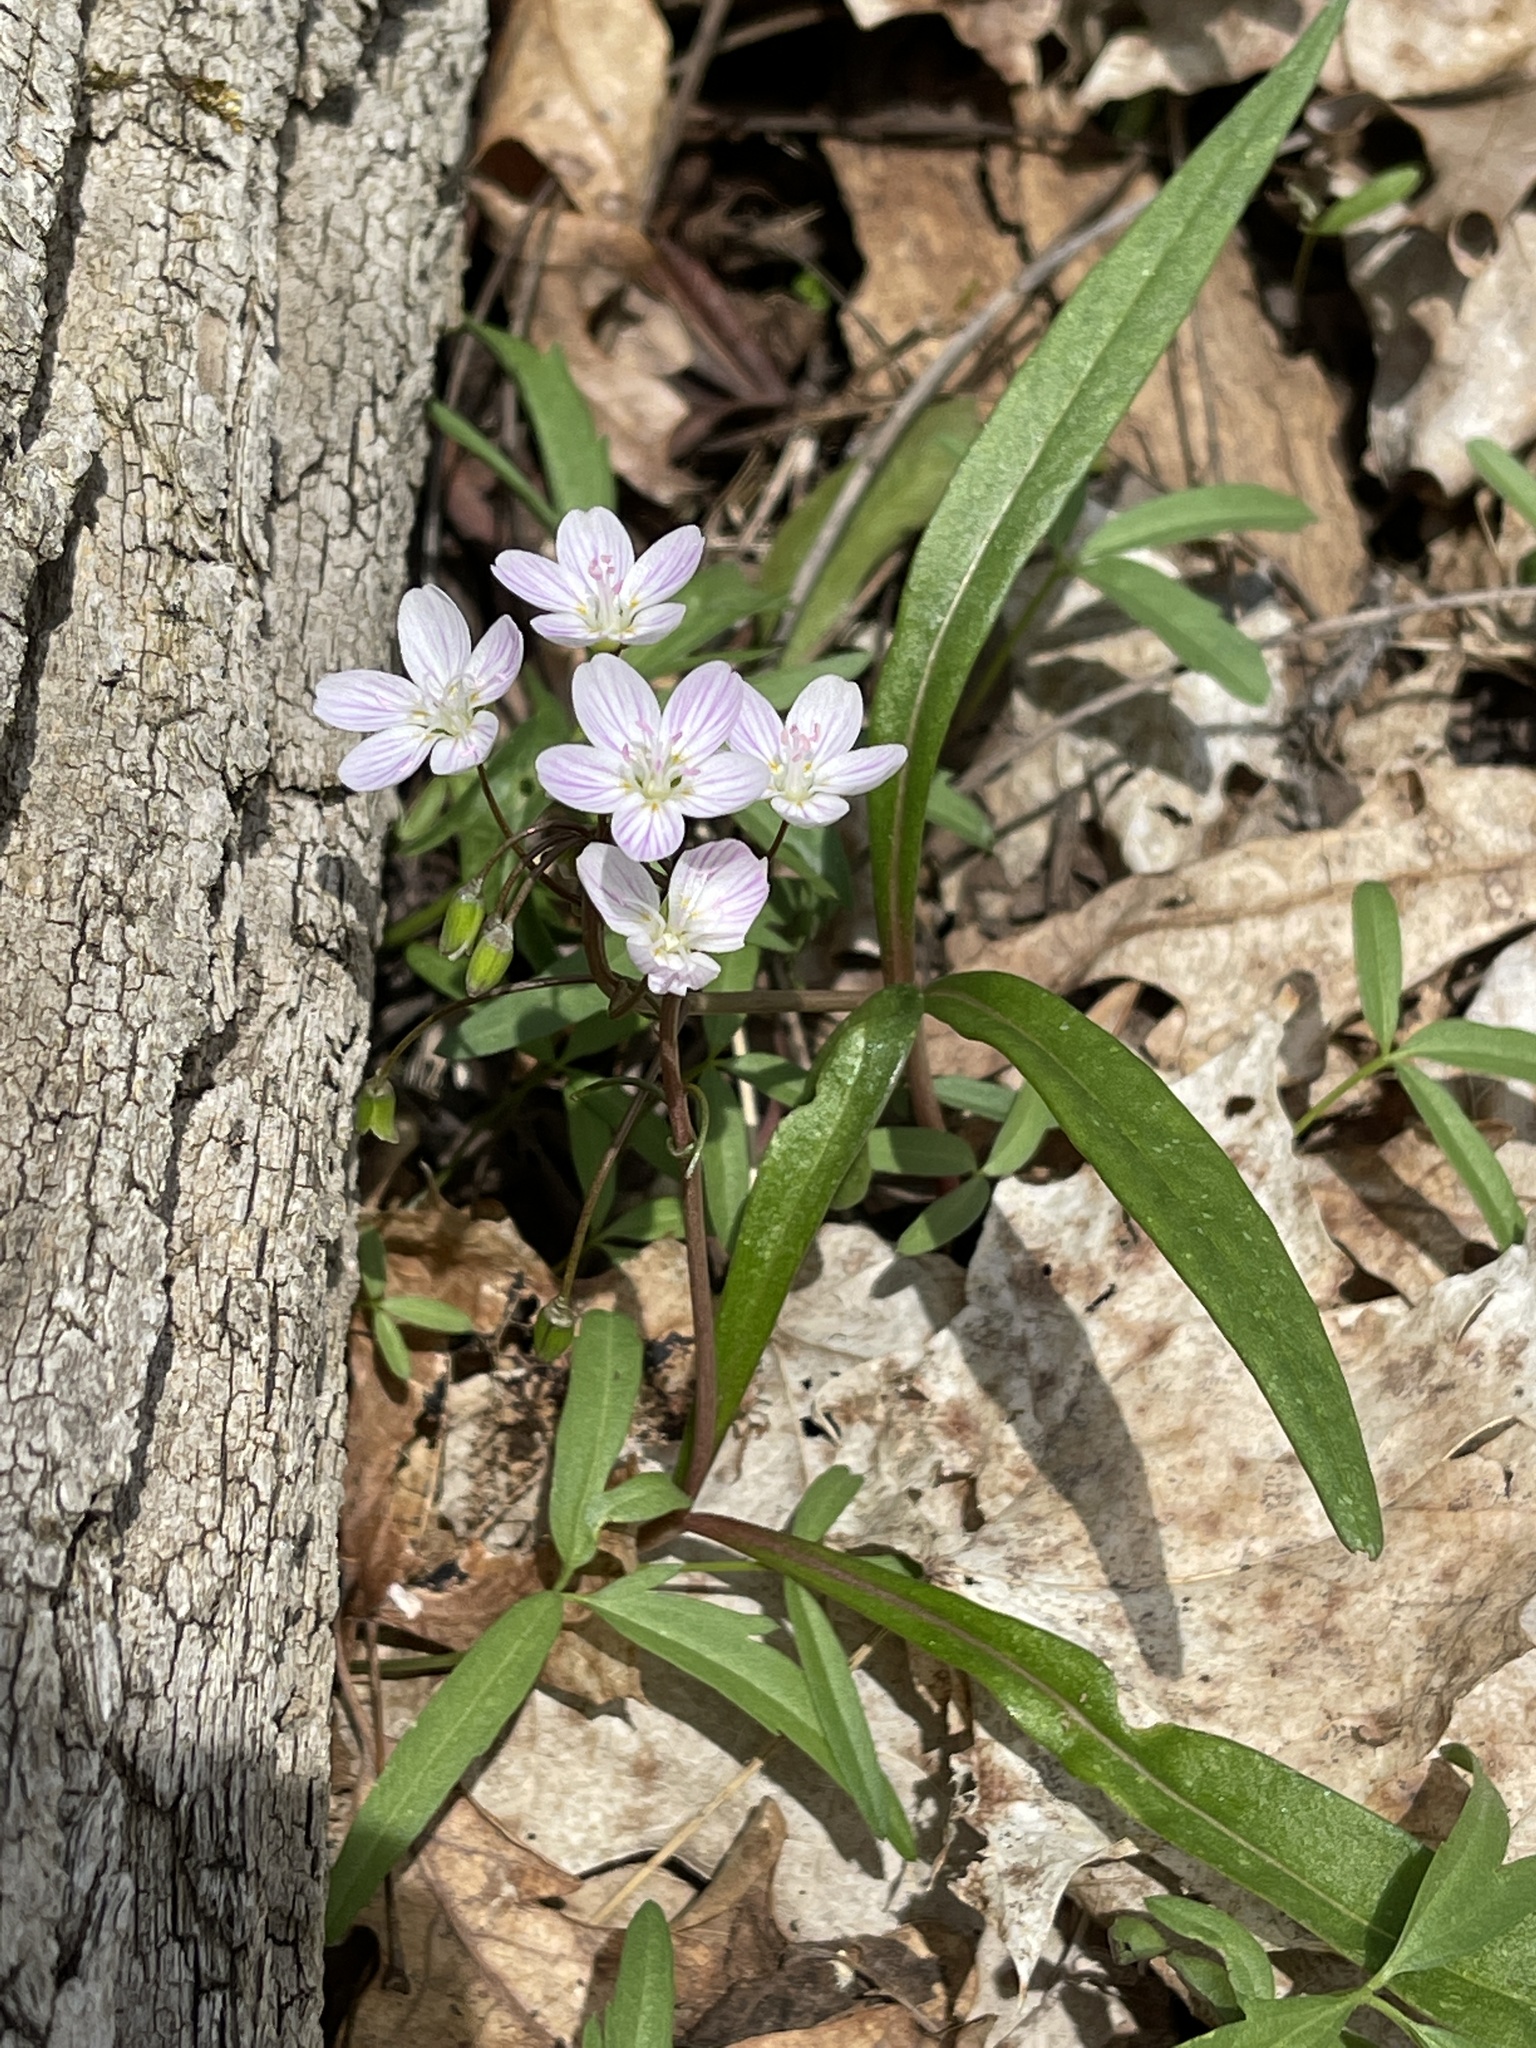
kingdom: Plantae
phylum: Tracheophyta
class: Magnoliopsida
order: Caryophyllales
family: Montiaceae
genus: Claytonia
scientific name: Claytonia virginica
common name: Virginia springbeauty
